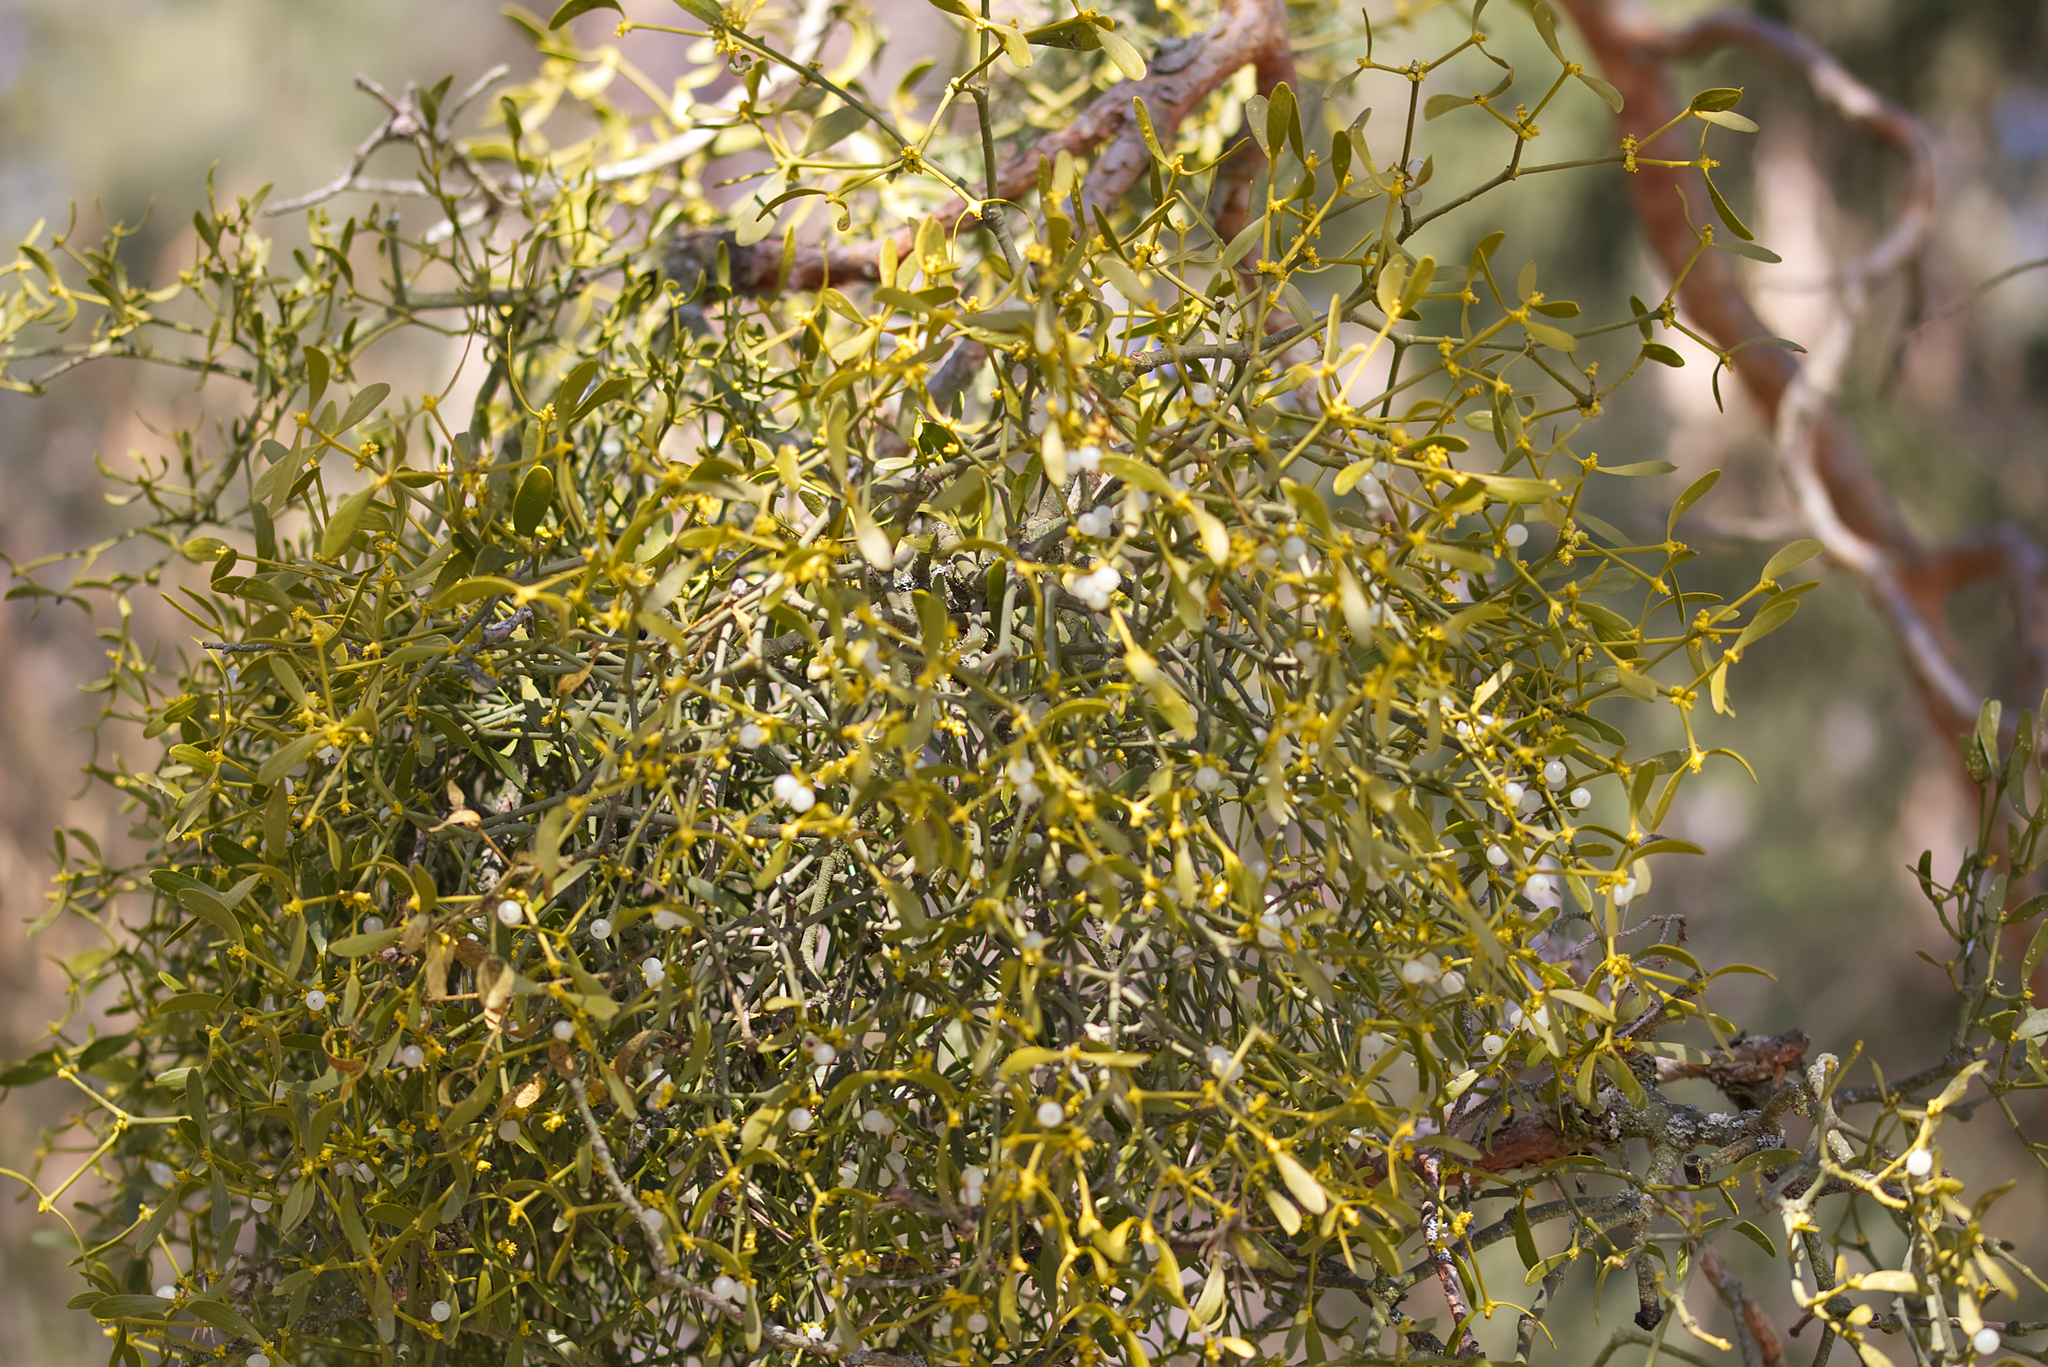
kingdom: Plantae
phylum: Tracheophyta
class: Magnoliopsida
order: Santalales
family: Viscaceae
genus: Viscum
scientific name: Viscum laxum
